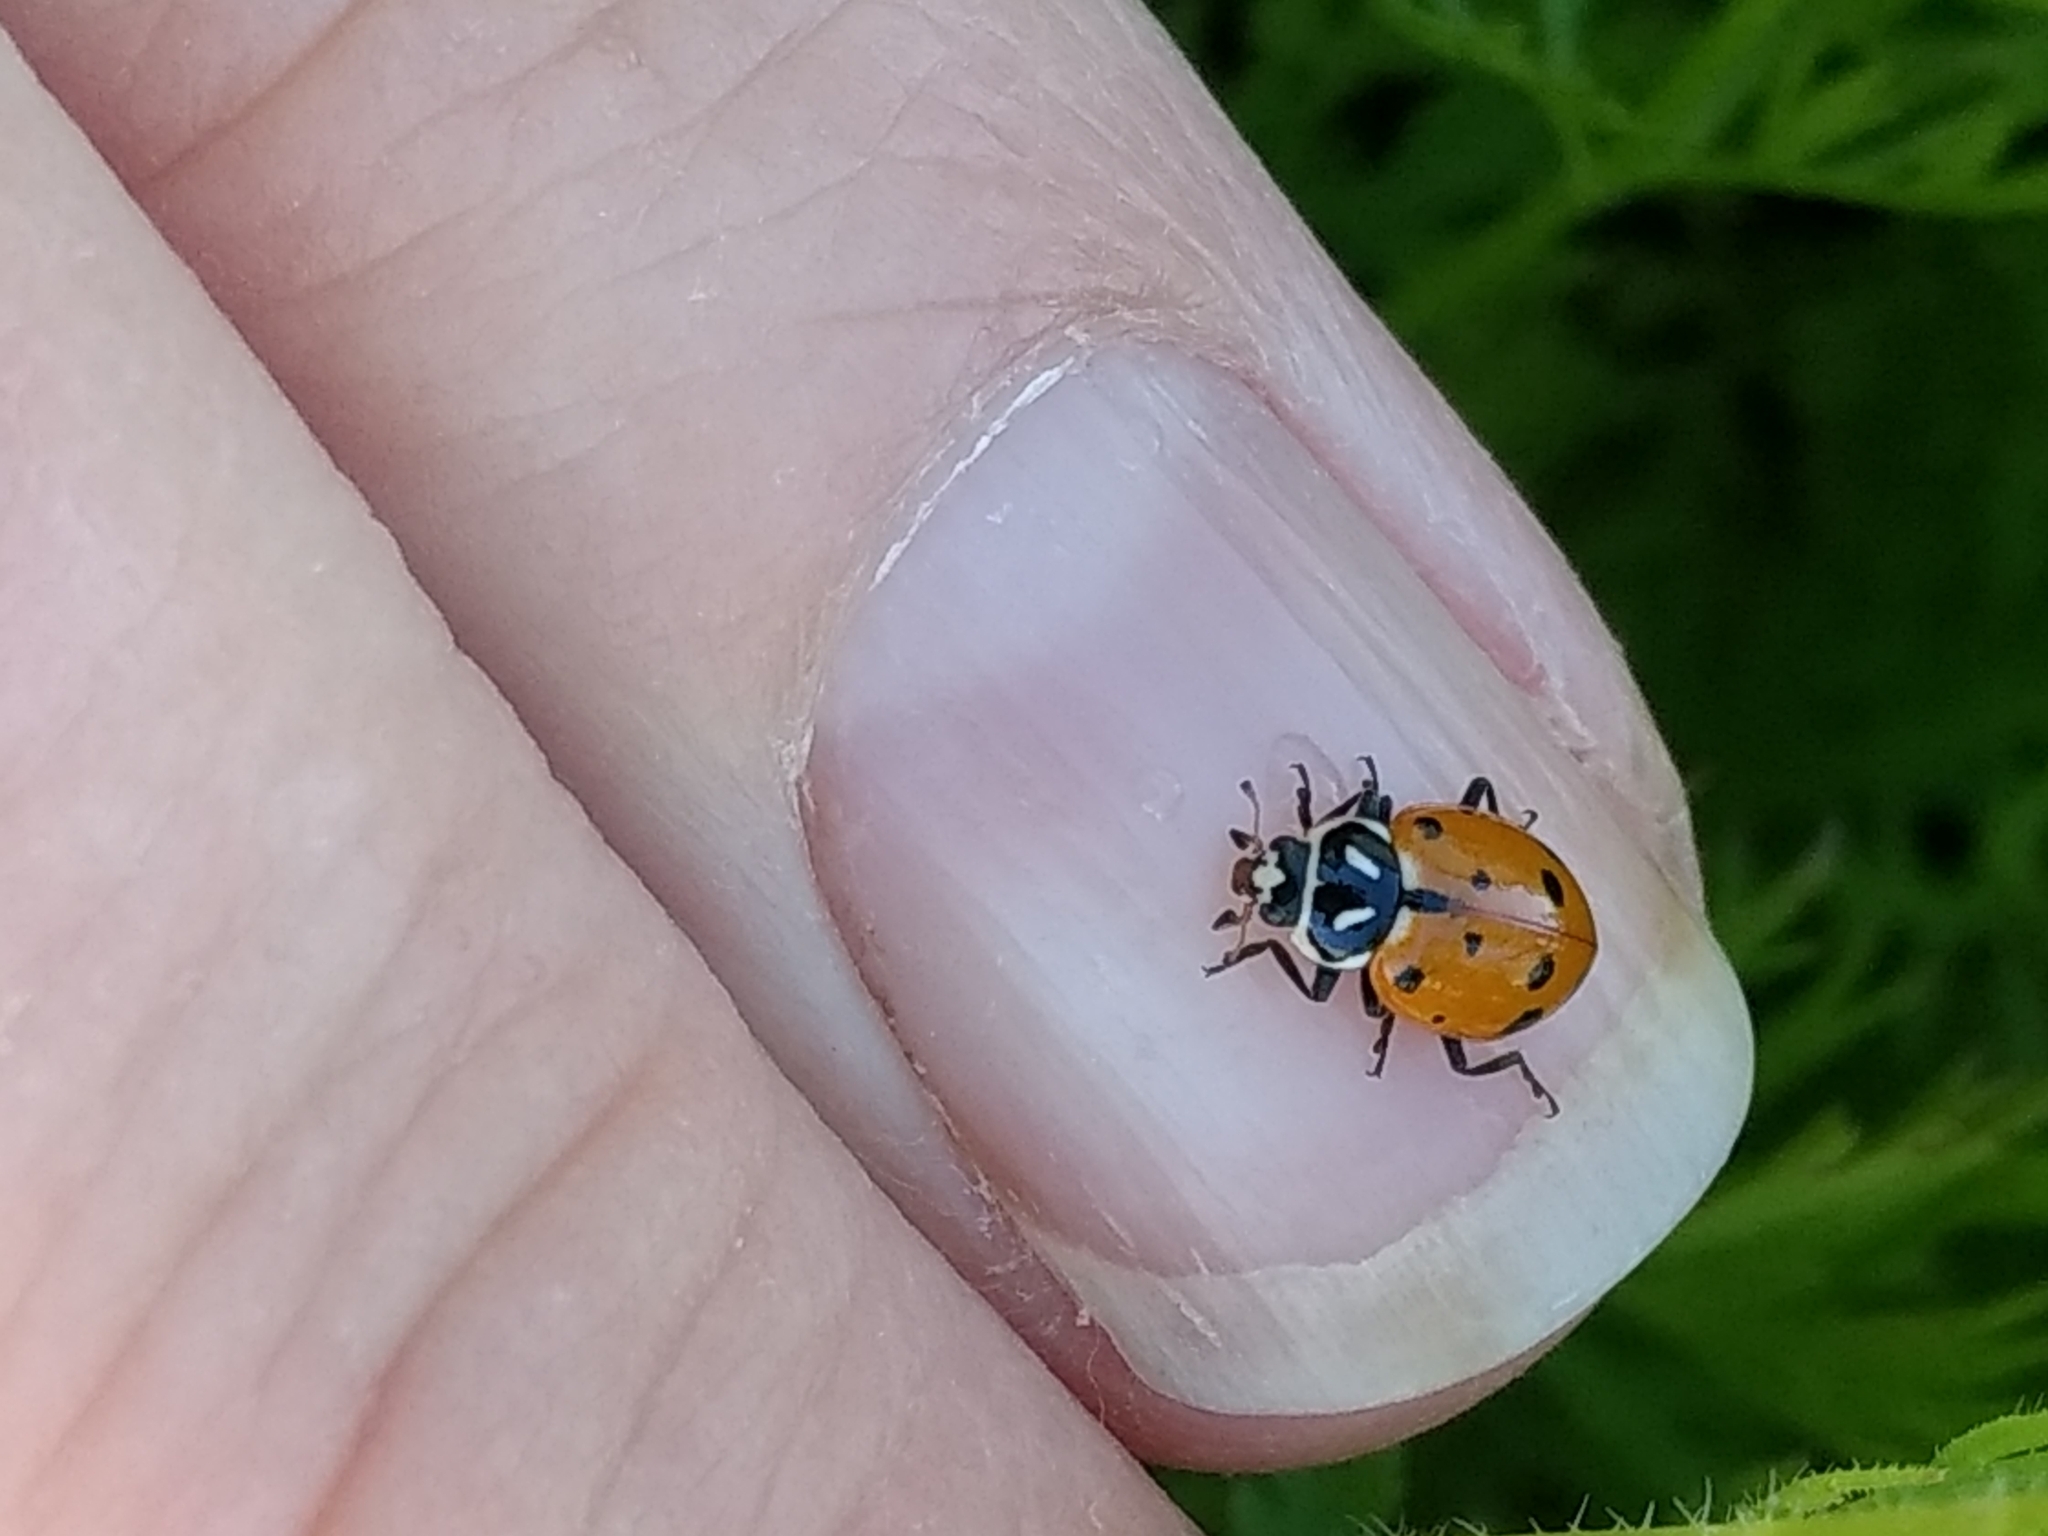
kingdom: Animalia
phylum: Arthropoda
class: Insecta
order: Coleoptera
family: Coccinellidae
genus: Hippodamia
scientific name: Hippodamia convergens
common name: Convergent lady beetle
